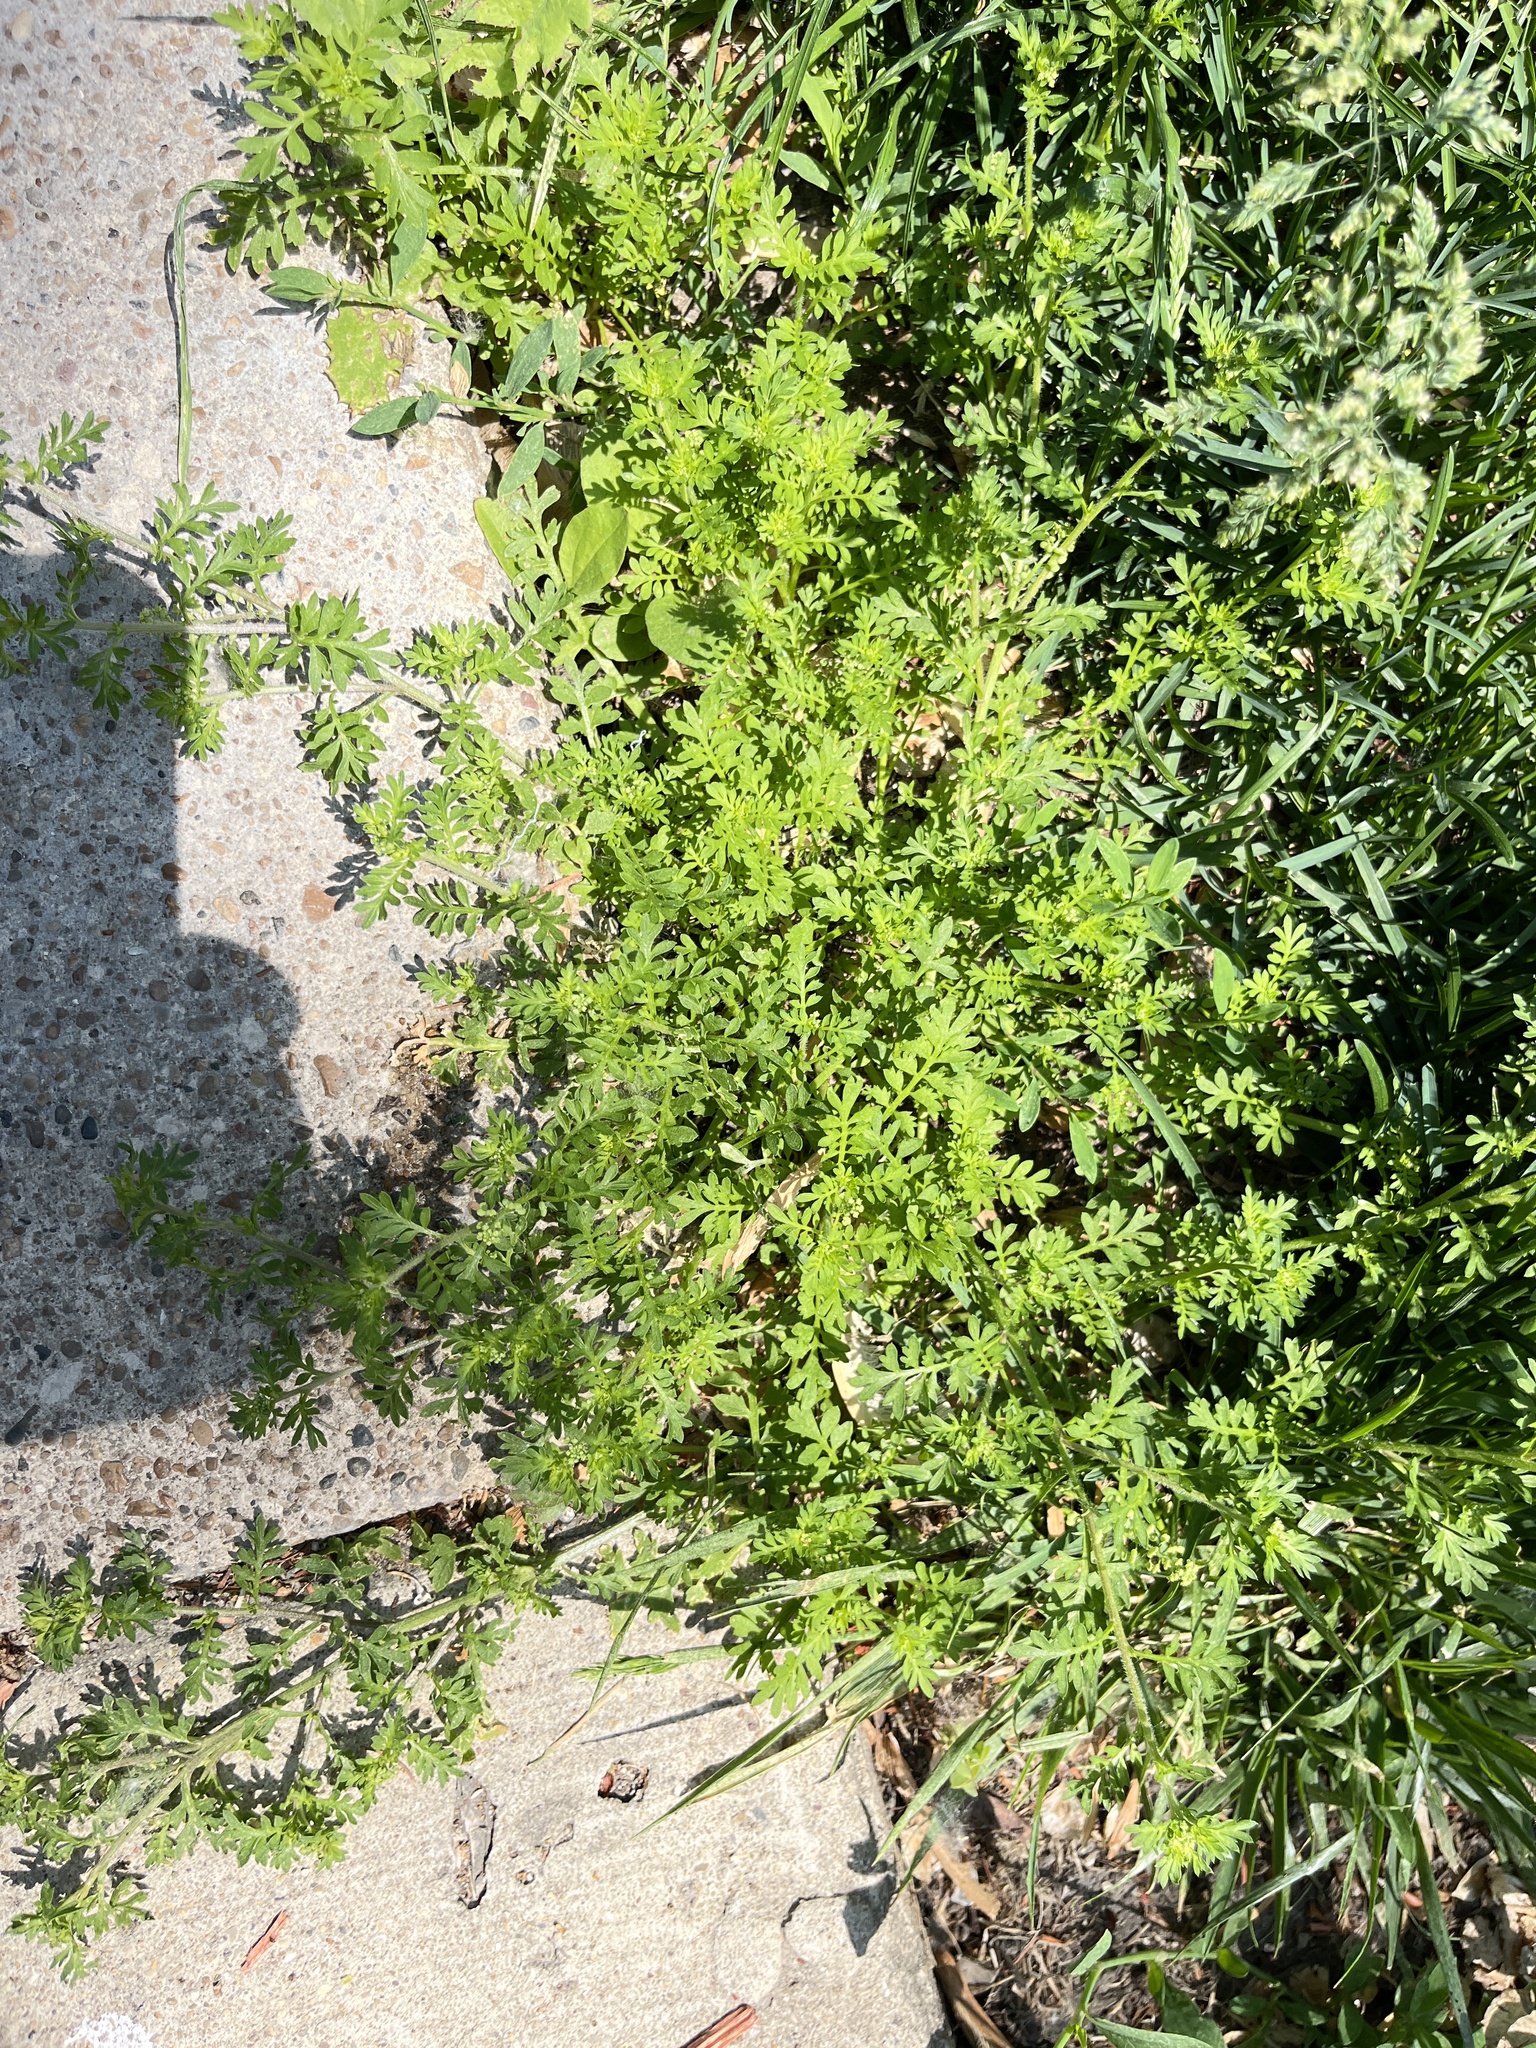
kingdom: Plantae
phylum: Tracheophyta
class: Magnoliopsida
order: Brassicales
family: Brassicaceae
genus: Lepidium
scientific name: Lepidium didymum
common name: Lesser swinecress
